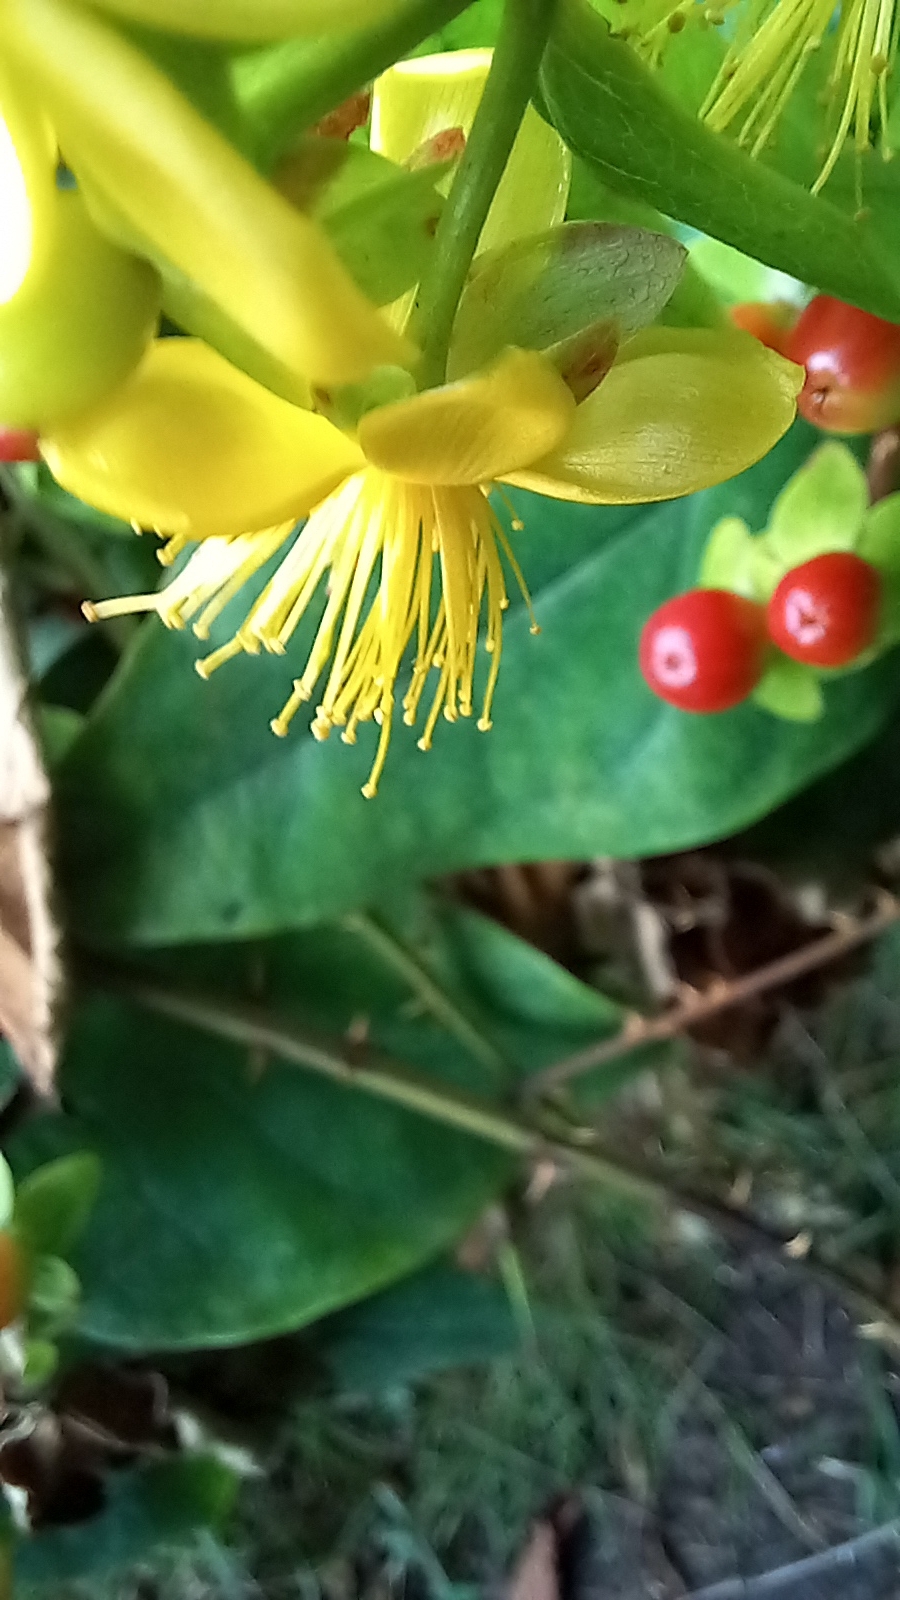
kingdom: Plantae
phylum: Tracheophyta
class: Magnoliopsida
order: Malpighiales
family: Hypericaceae
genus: Hypericum
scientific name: Hypericum androsaemum
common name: Sweet-amber
